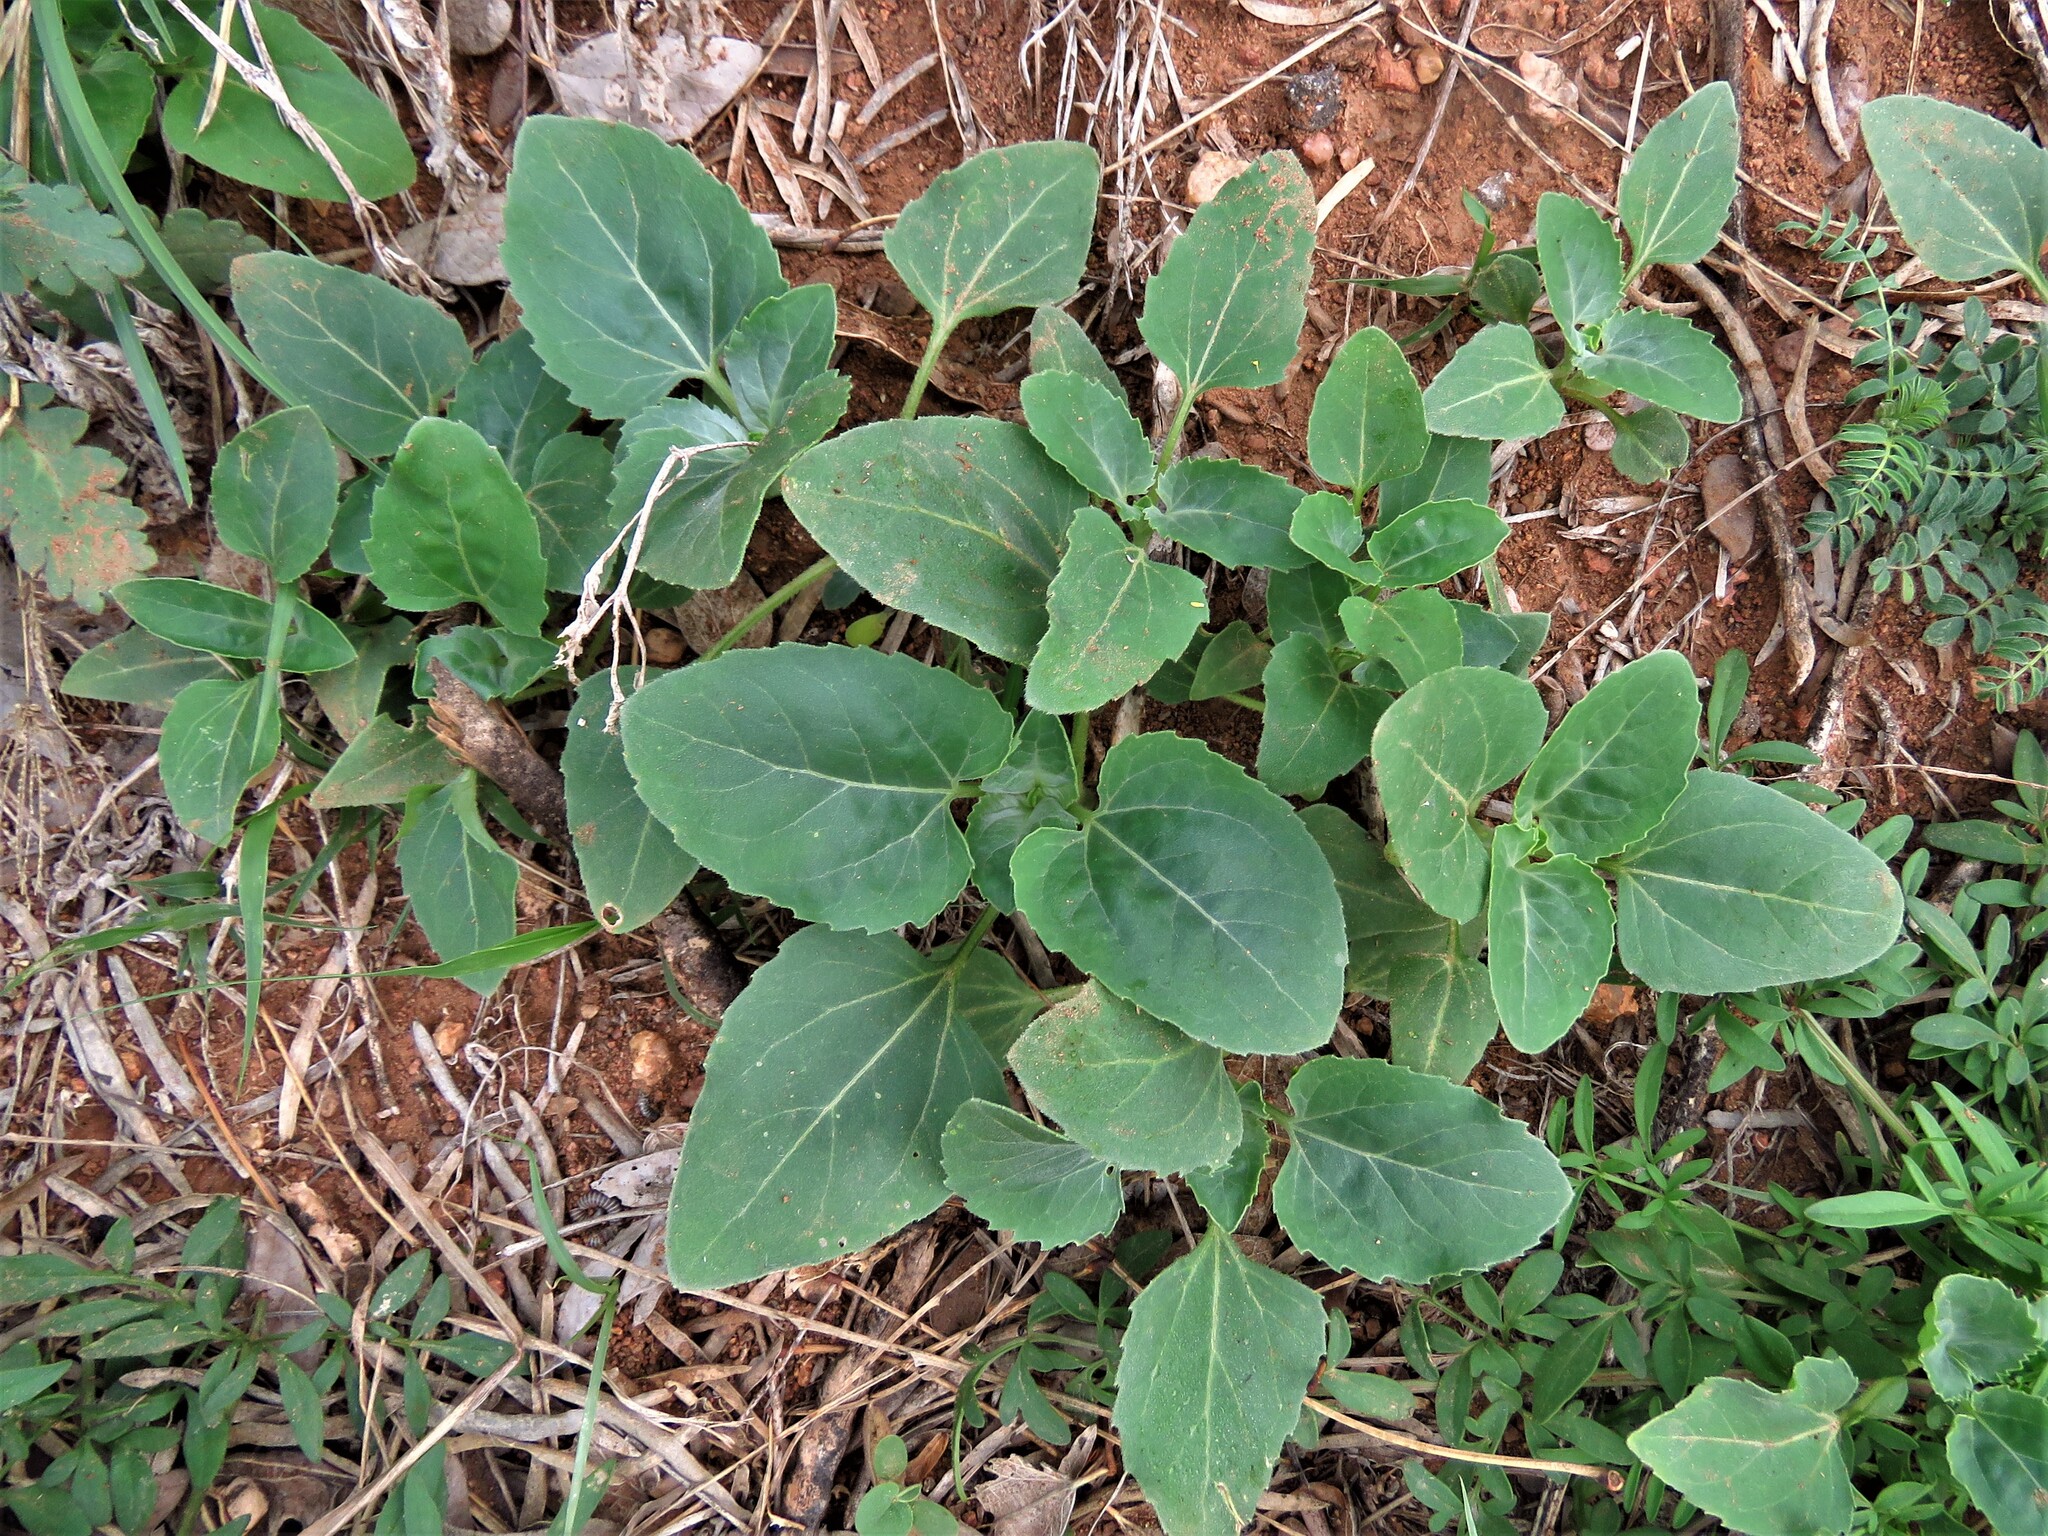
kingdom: Plantae
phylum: Tracheophyta
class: Magnoliopsida
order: Asterales
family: Asteraceae
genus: Verbesina
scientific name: Verbesina encelioides
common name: Golden crownbeard
